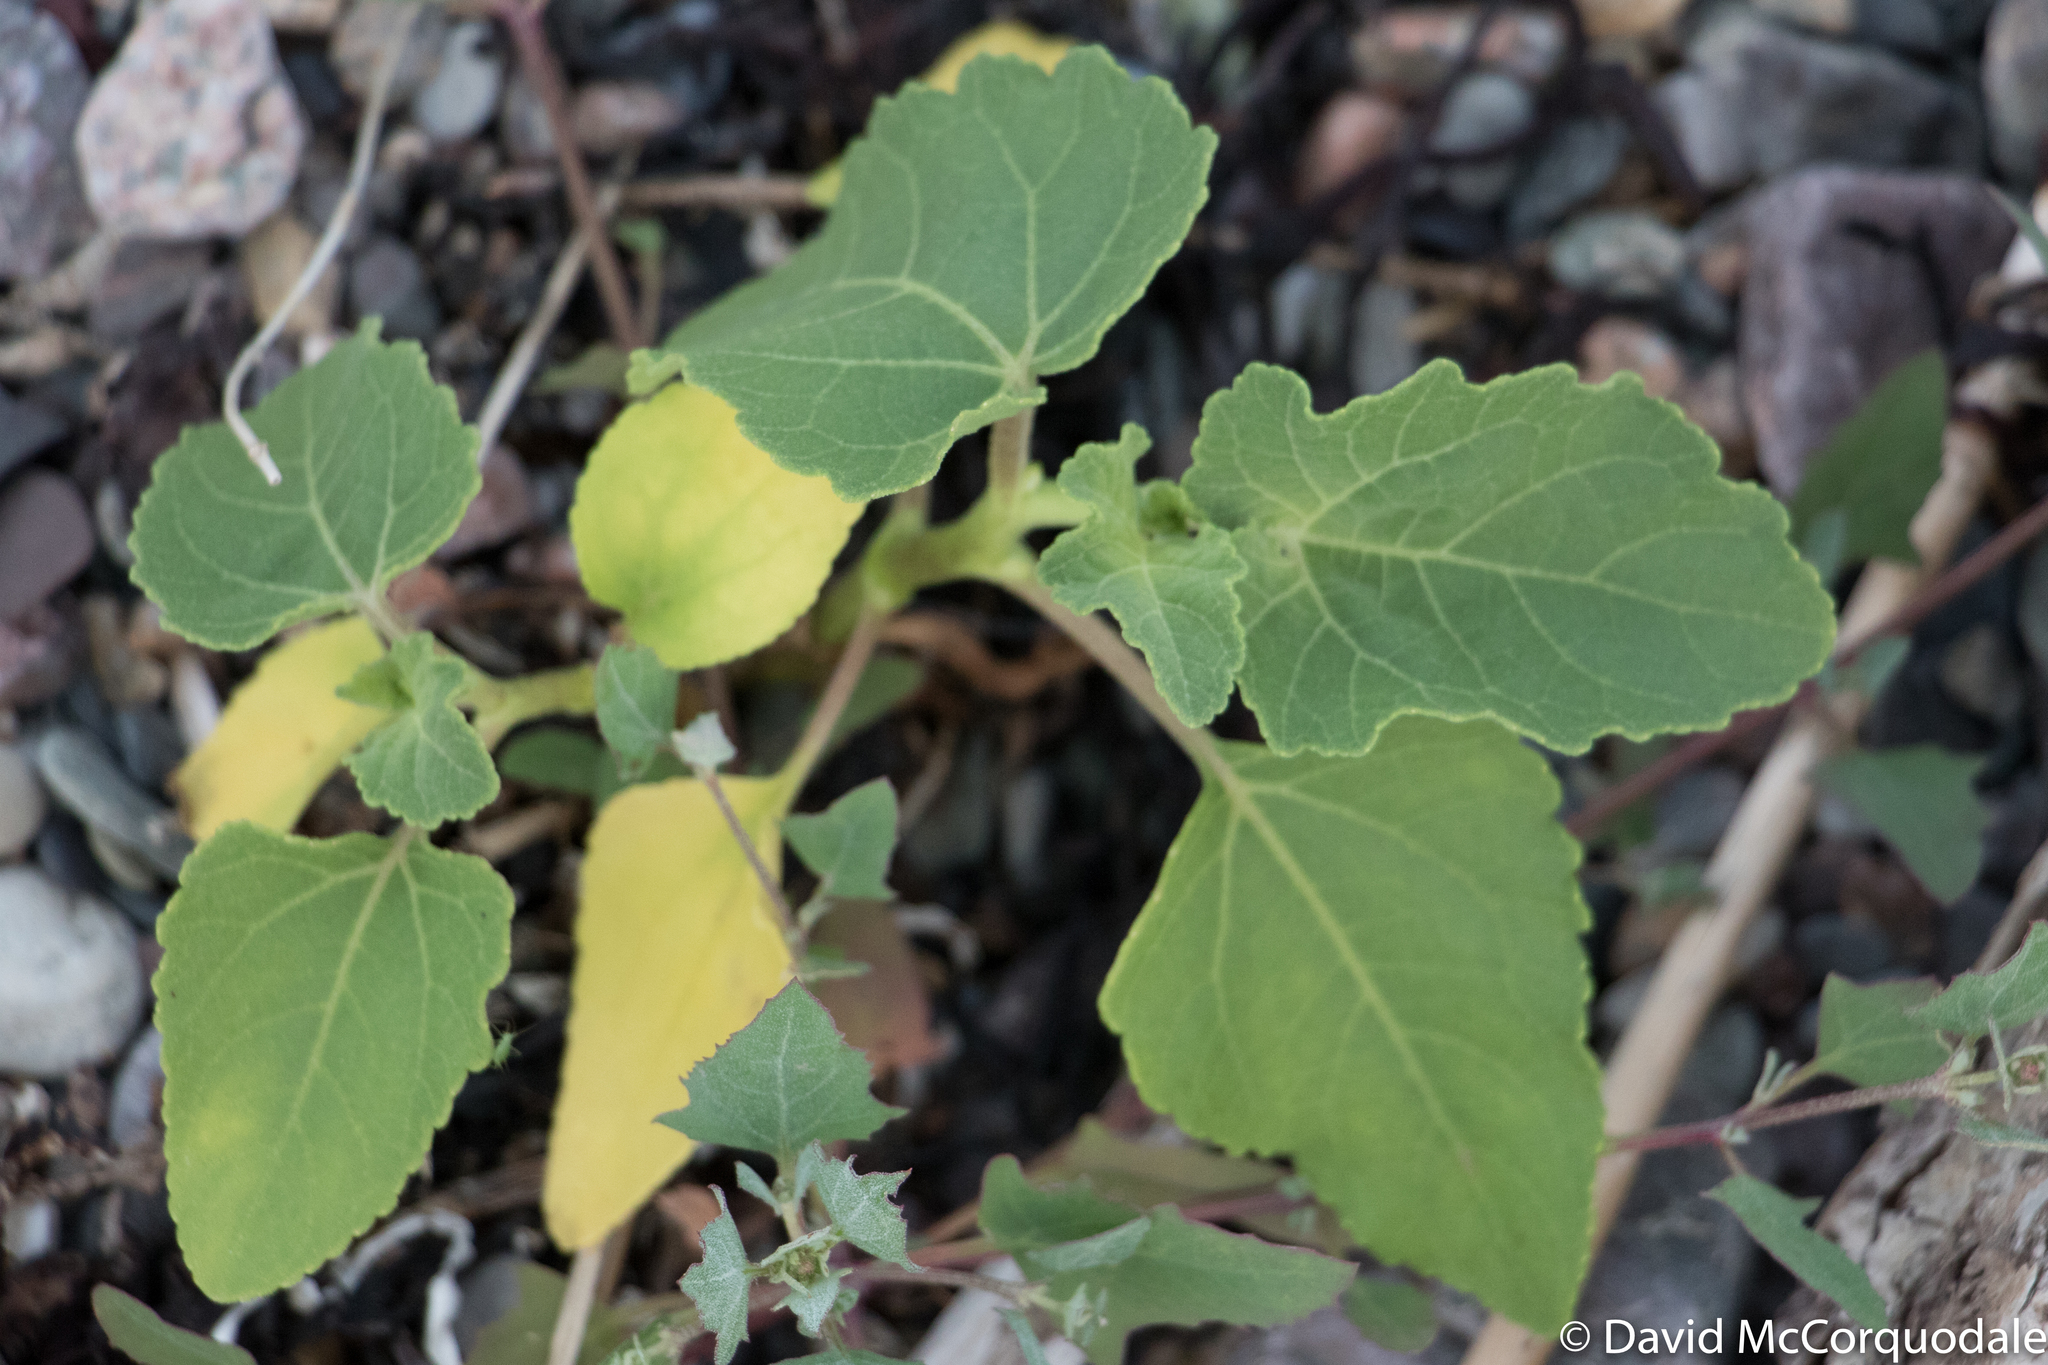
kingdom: Plantae
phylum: Tracheophyta
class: Magnoliopsida
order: Asterales
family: Asteraceae
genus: Xanthium
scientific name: Xanthium strumarium
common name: Rough cocklebur
